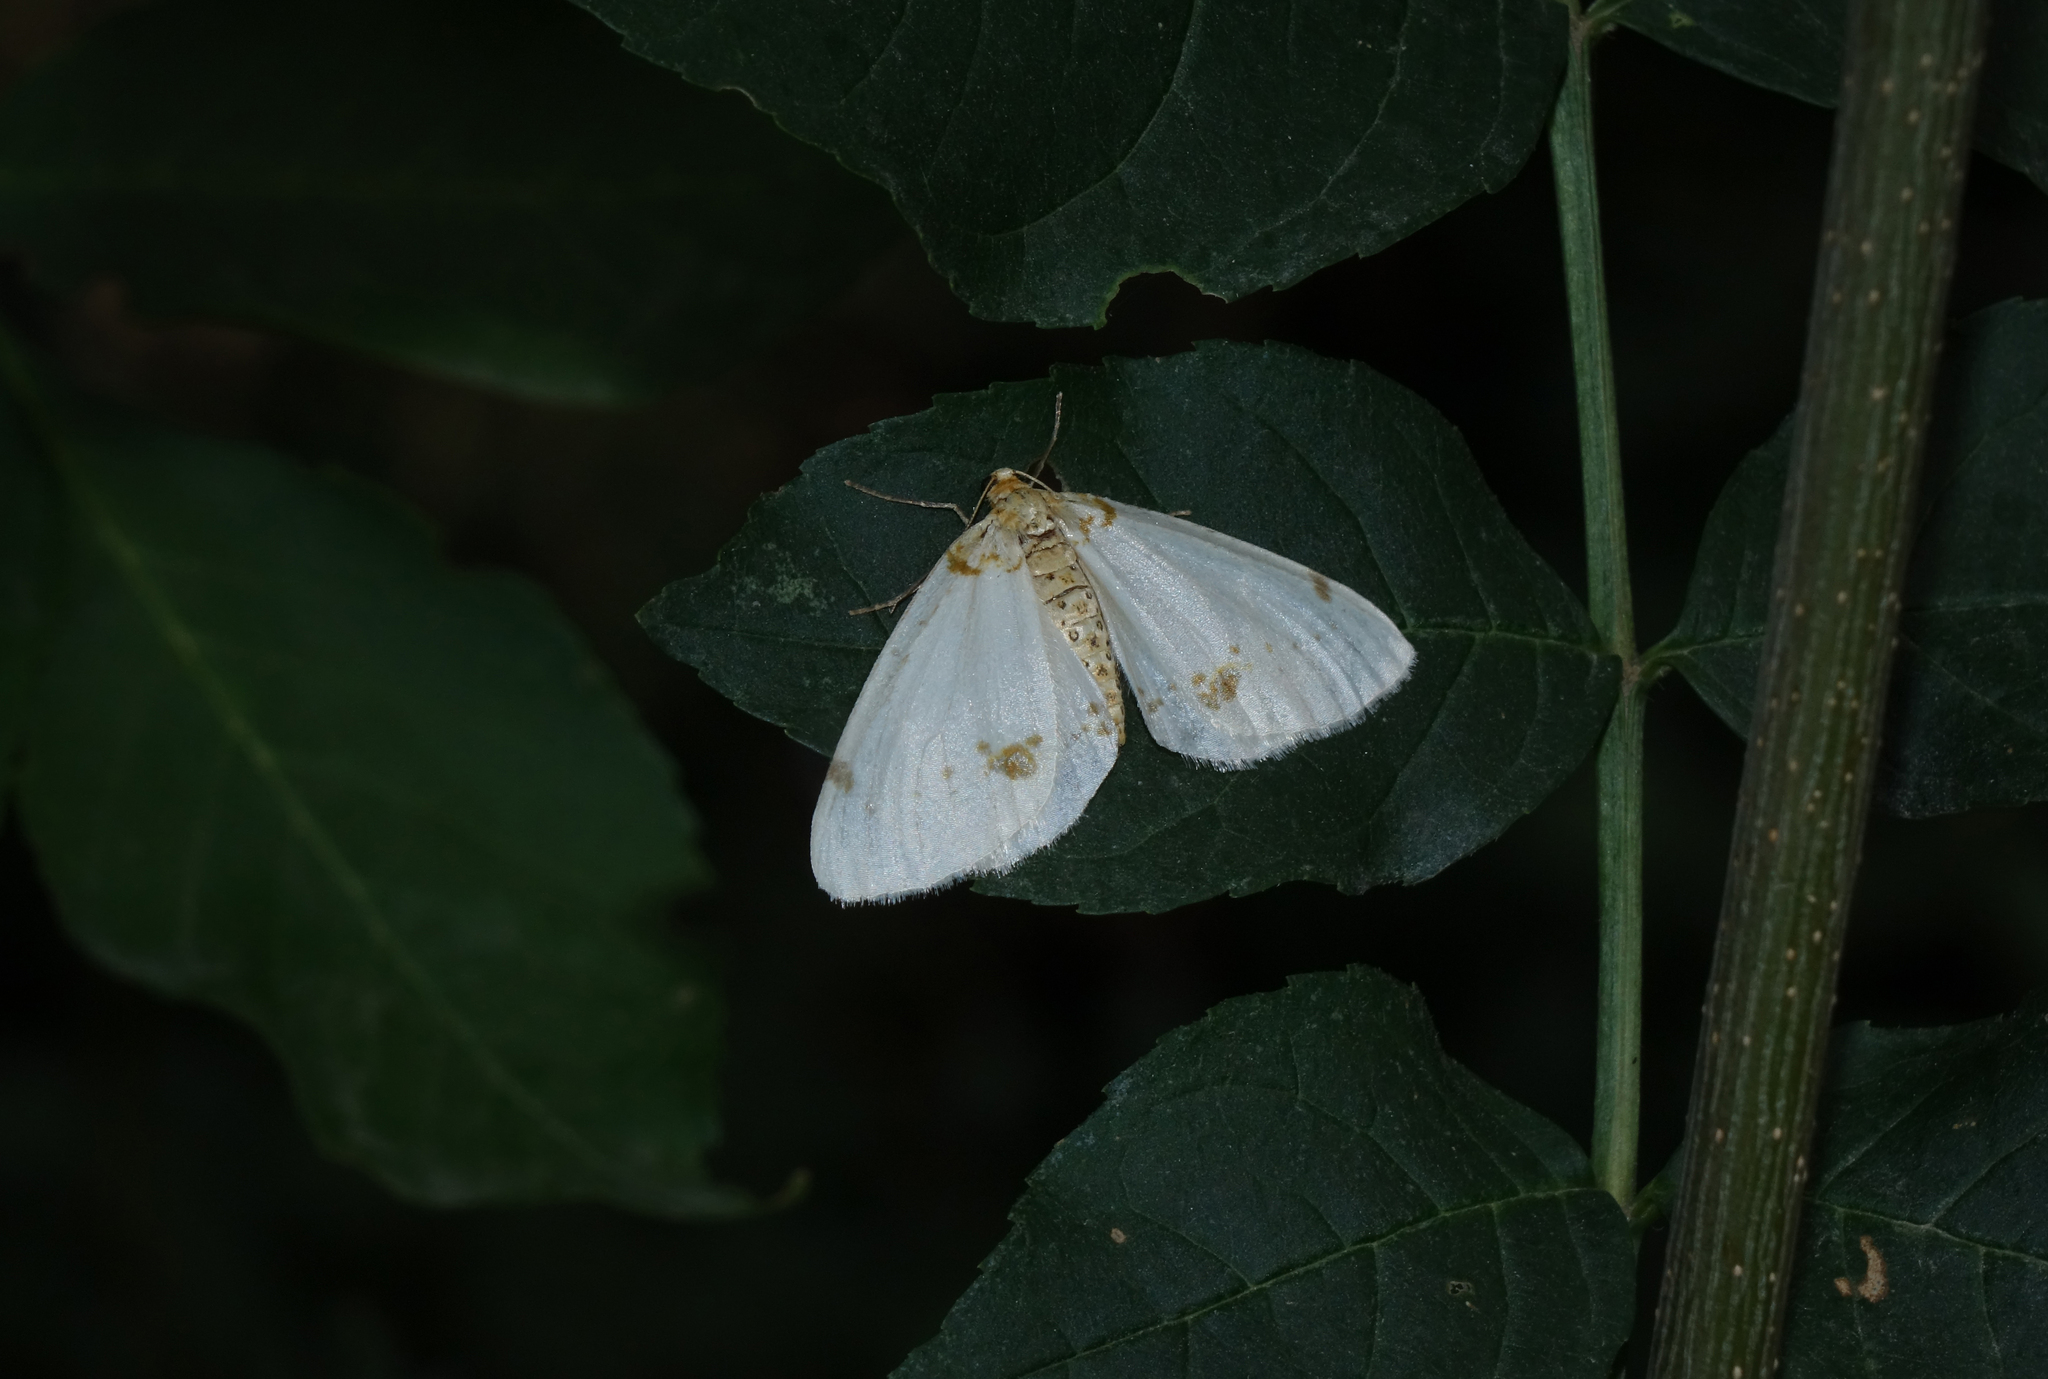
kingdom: Animalia
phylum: Arthropoda
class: Insecta
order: Lepidoptera
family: Geometridae
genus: Abraxas
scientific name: Abraxas pantaria
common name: Light magpie
